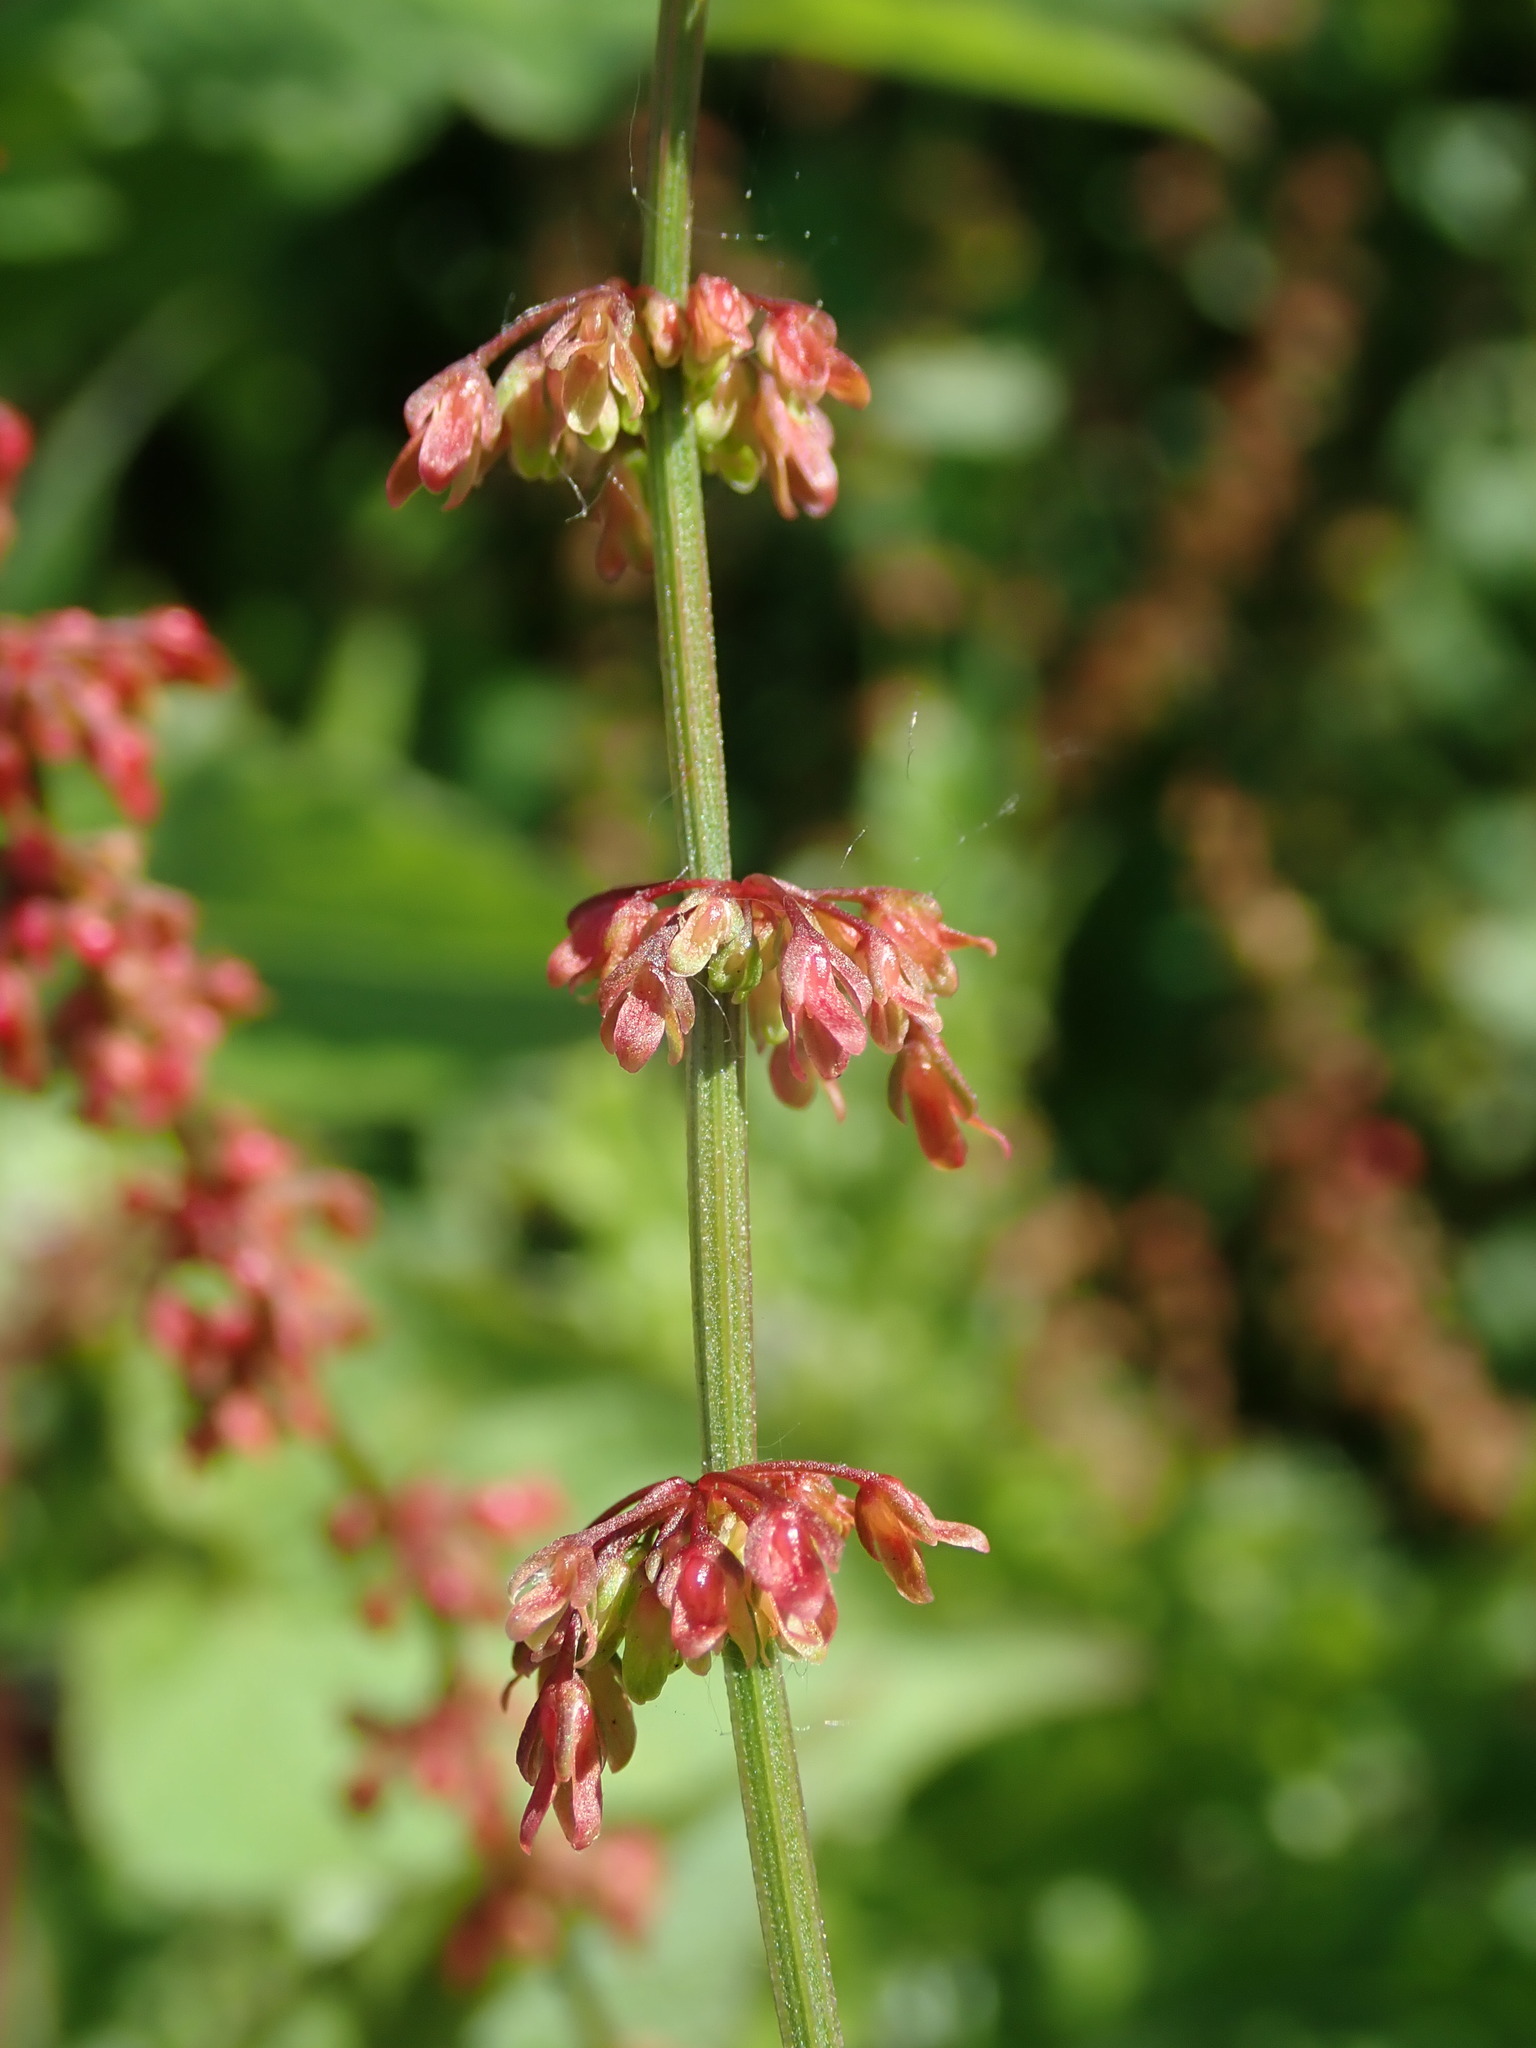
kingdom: Plantae
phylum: Tracheophyta
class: Magnoliopsida
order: Caryophyllales
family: Polygonaceae
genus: Rumex
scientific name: Rumex sanguineus
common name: Wood dock
